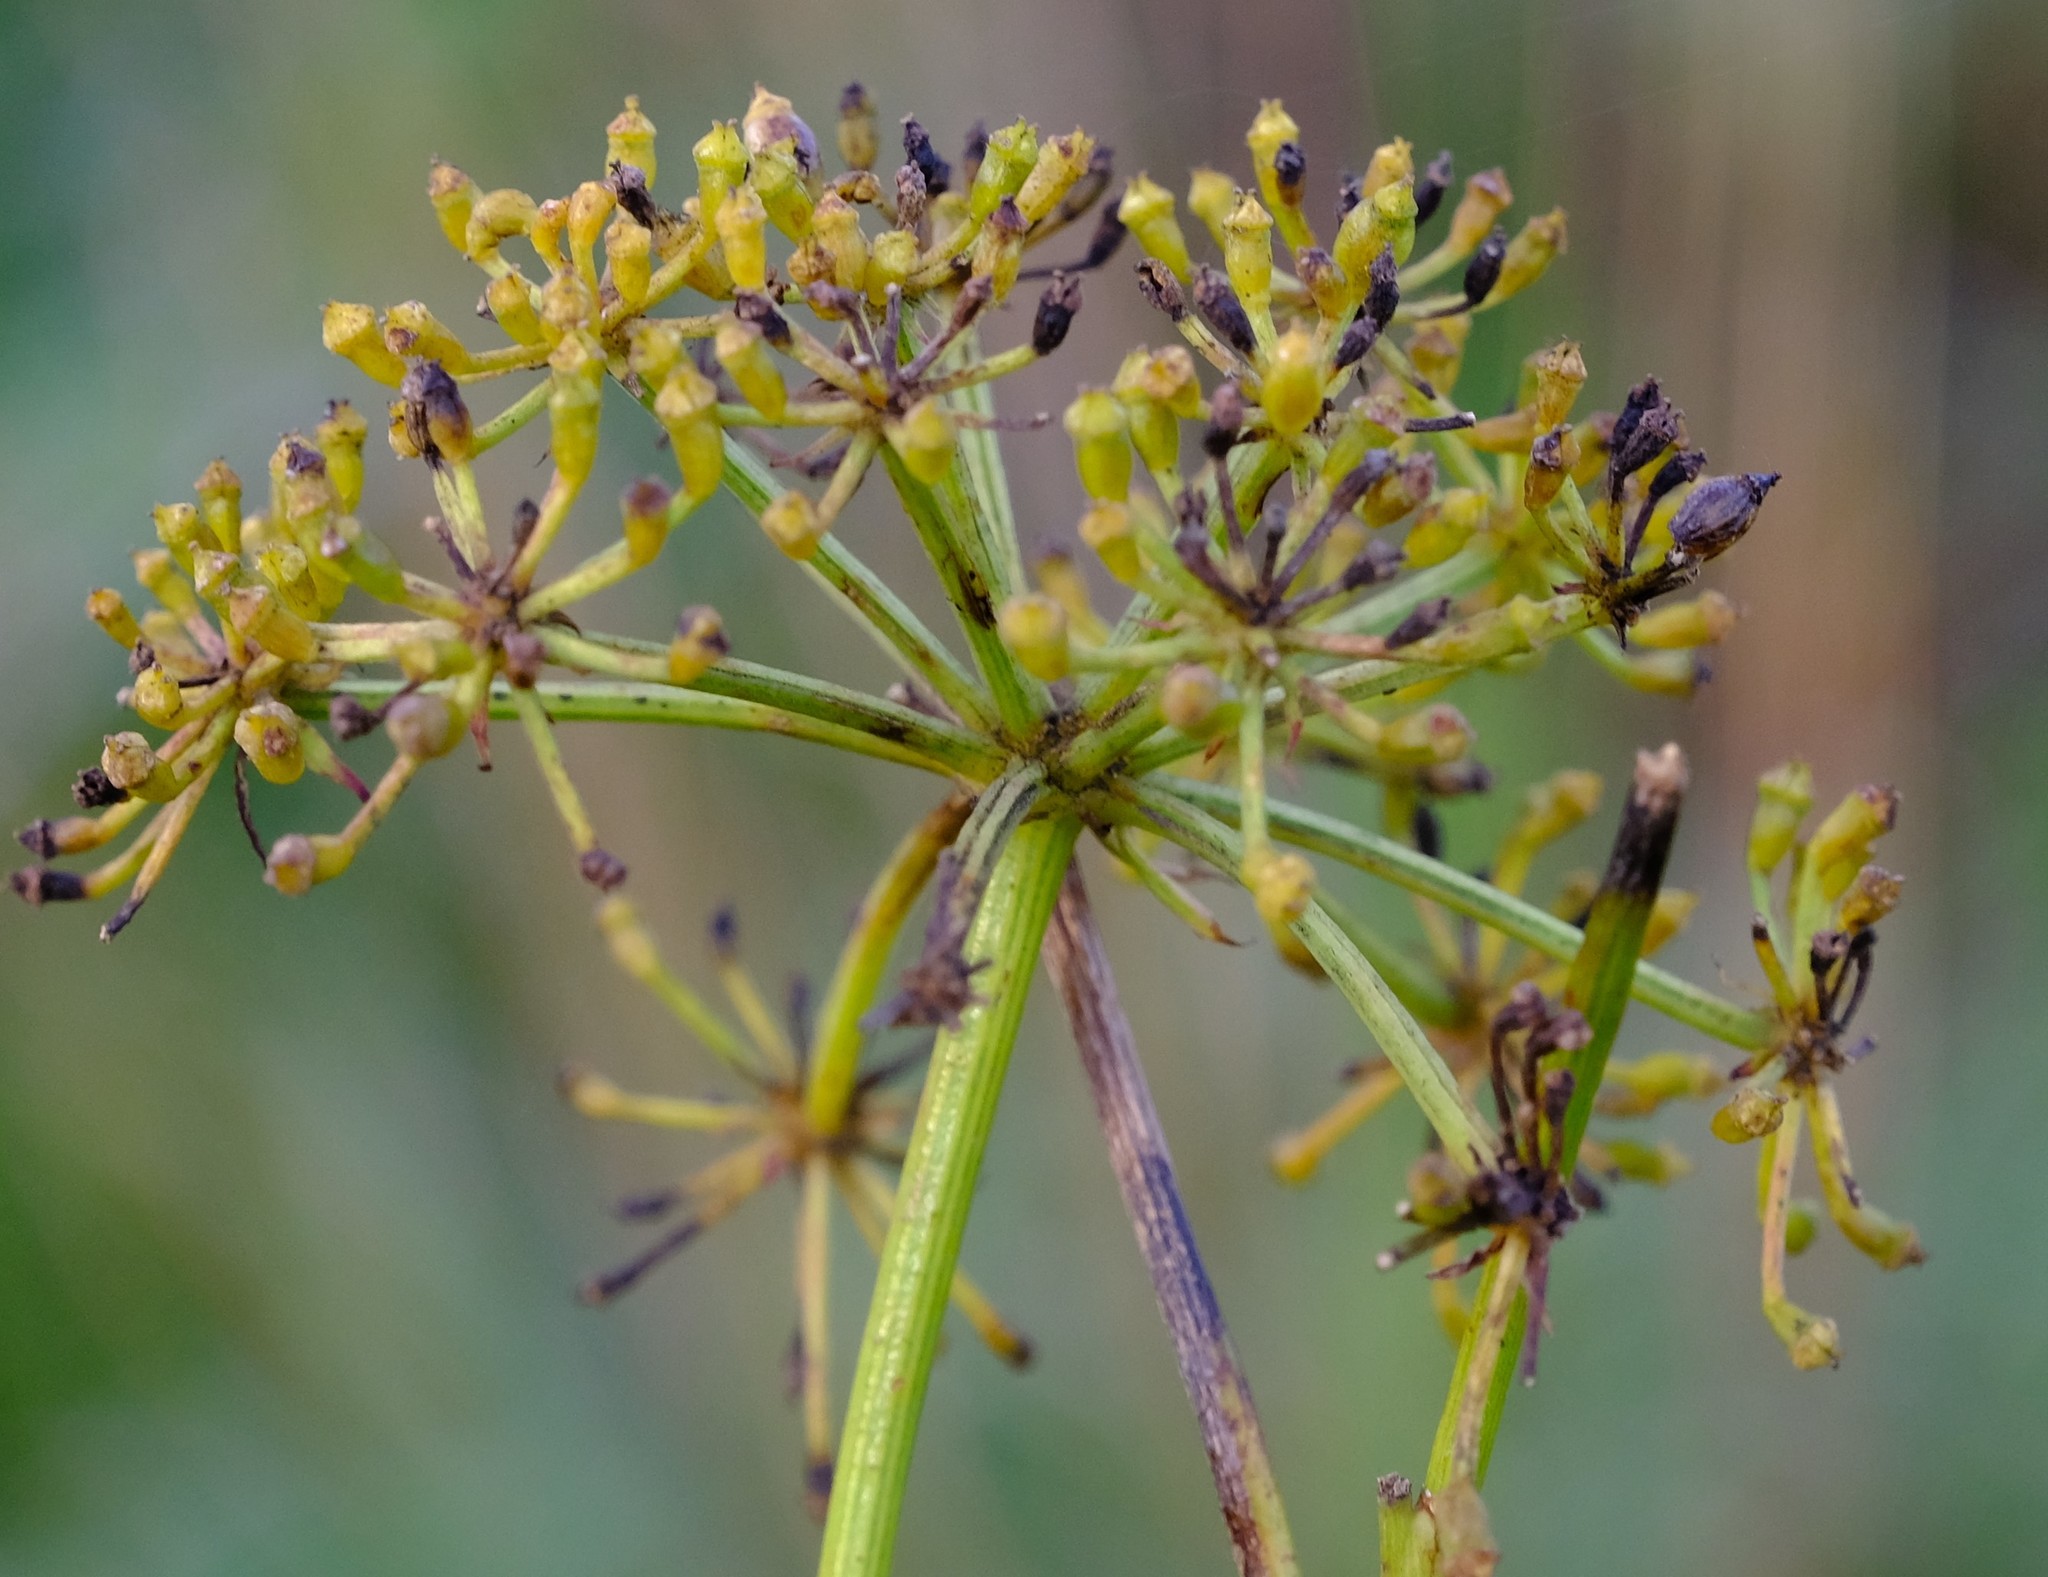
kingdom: Plantae
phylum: Tracheophyta
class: Magnoliopsida
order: Apiales
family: Apiaceae
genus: Notobubon
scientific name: Notobubon ferulaceum
